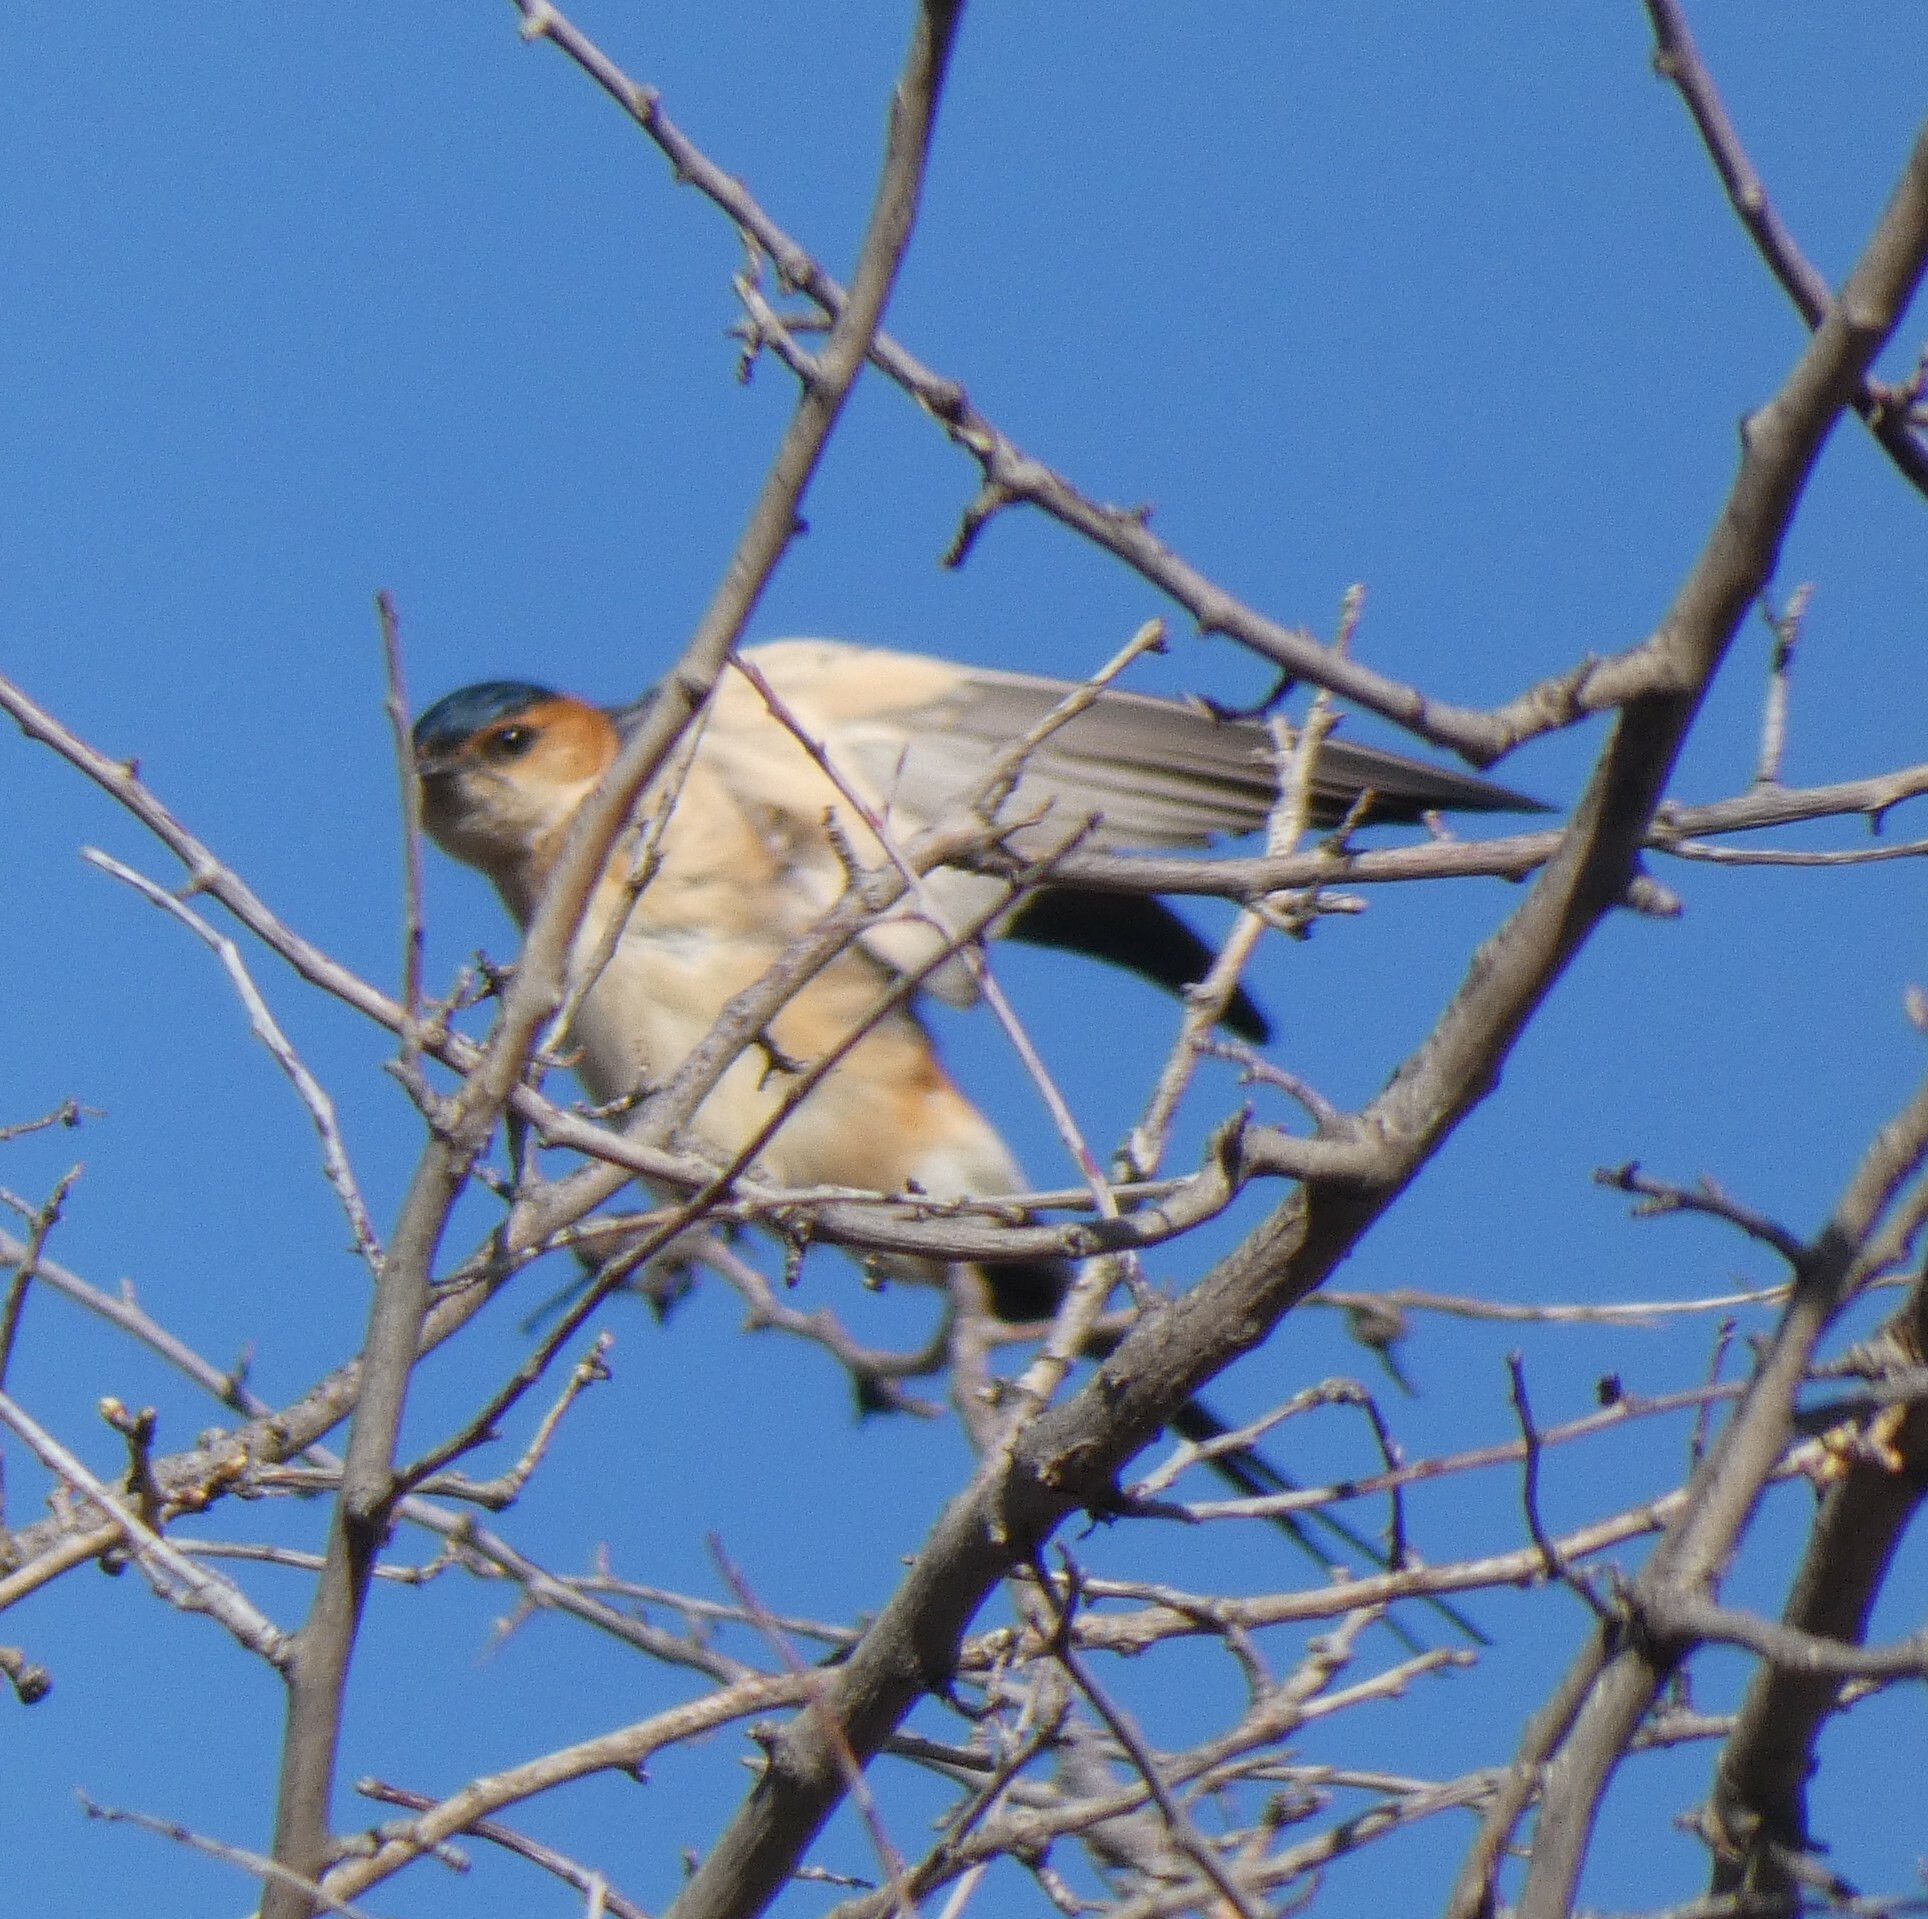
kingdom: Animalia
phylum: Chordata
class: Aves
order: Passeriformes
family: Hirundinidae
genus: Cecropis
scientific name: Cecropis daurica
